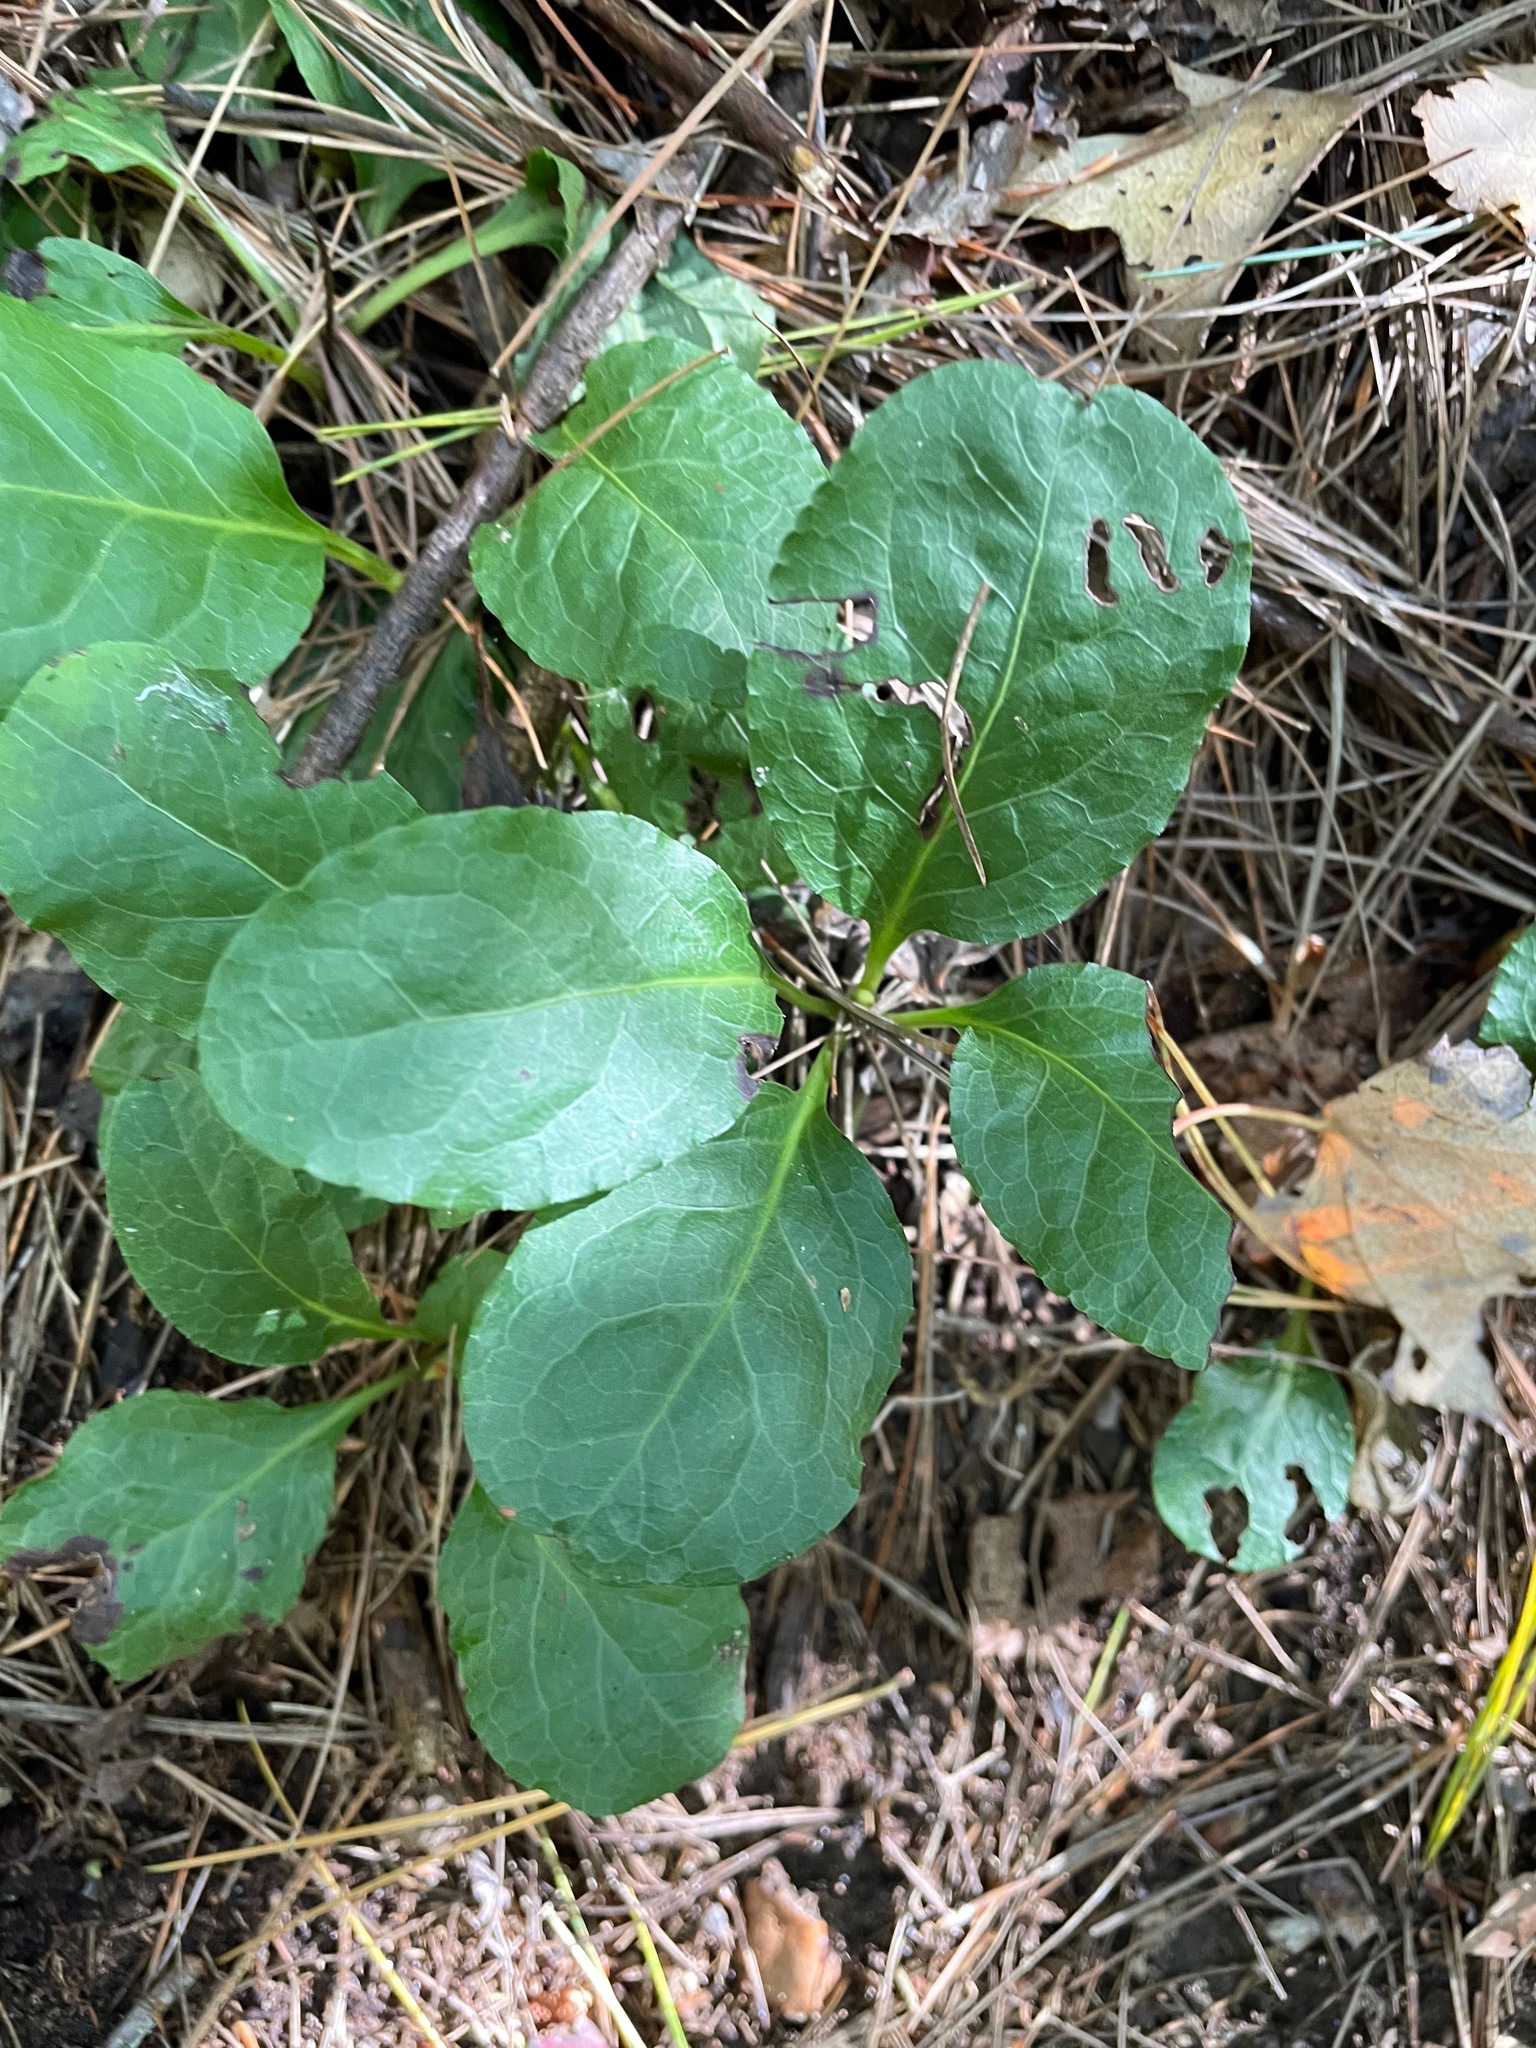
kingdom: Plantae
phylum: Tracheophyta
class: Magnoliopsida
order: Ericales
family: Ericaceae
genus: Pyrola
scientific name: Pyrola elliptica
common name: Shinleaf
